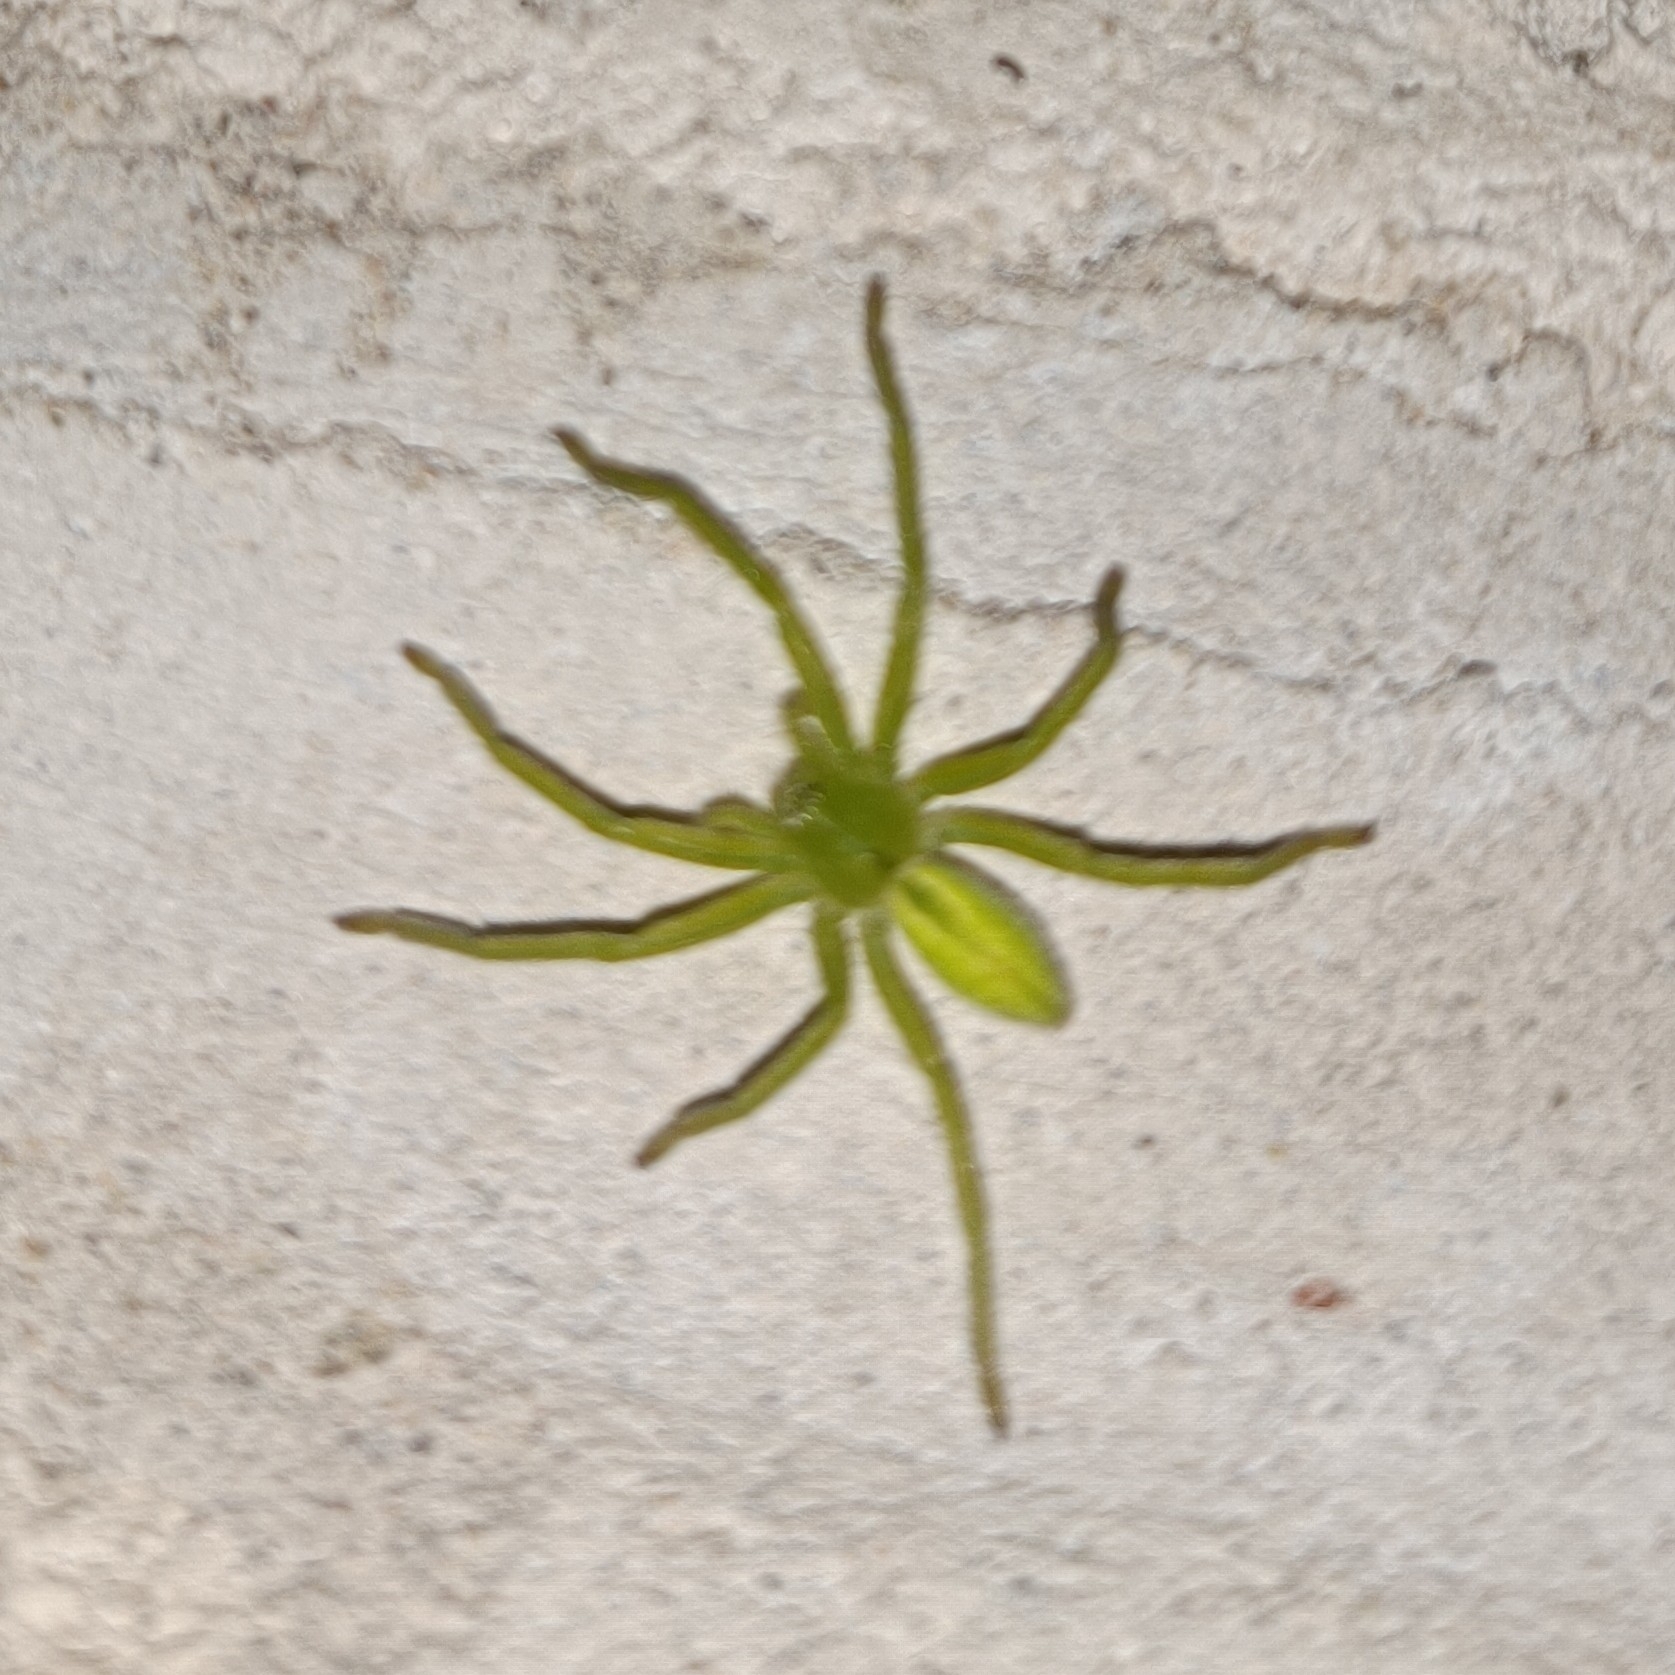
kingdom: Animalia
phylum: Arthropoda
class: Arachnida
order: Araneae
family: Sparassidae
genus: Micrommata
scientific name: Micrommata virescens
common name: Green spider
